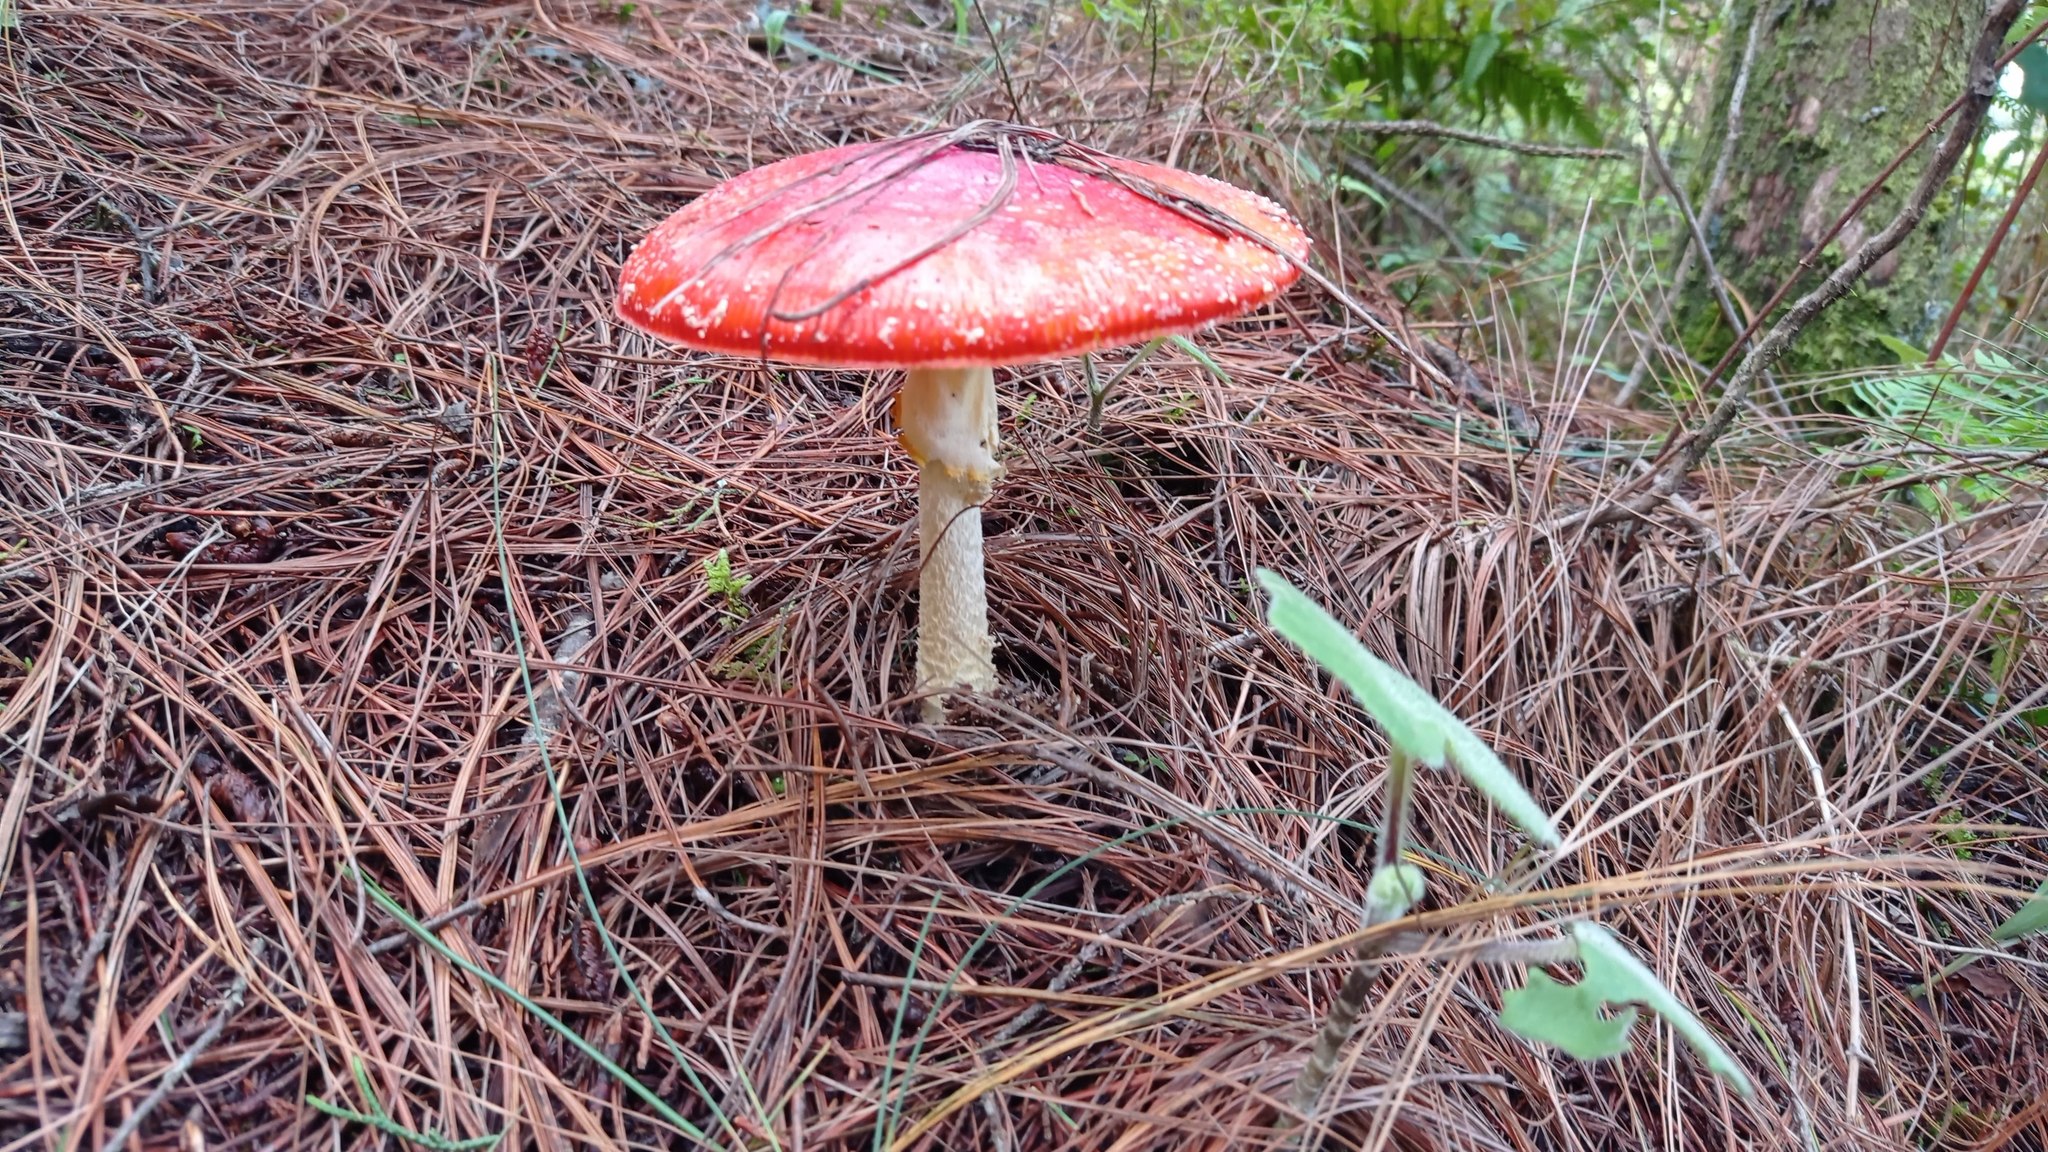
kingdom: Fungi
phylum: Basidiomycota
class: Agaricomycetes
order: Agaricales
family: Amanitaceae
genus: Amanita
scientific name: Amanita muscaria
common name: Fly agaric
